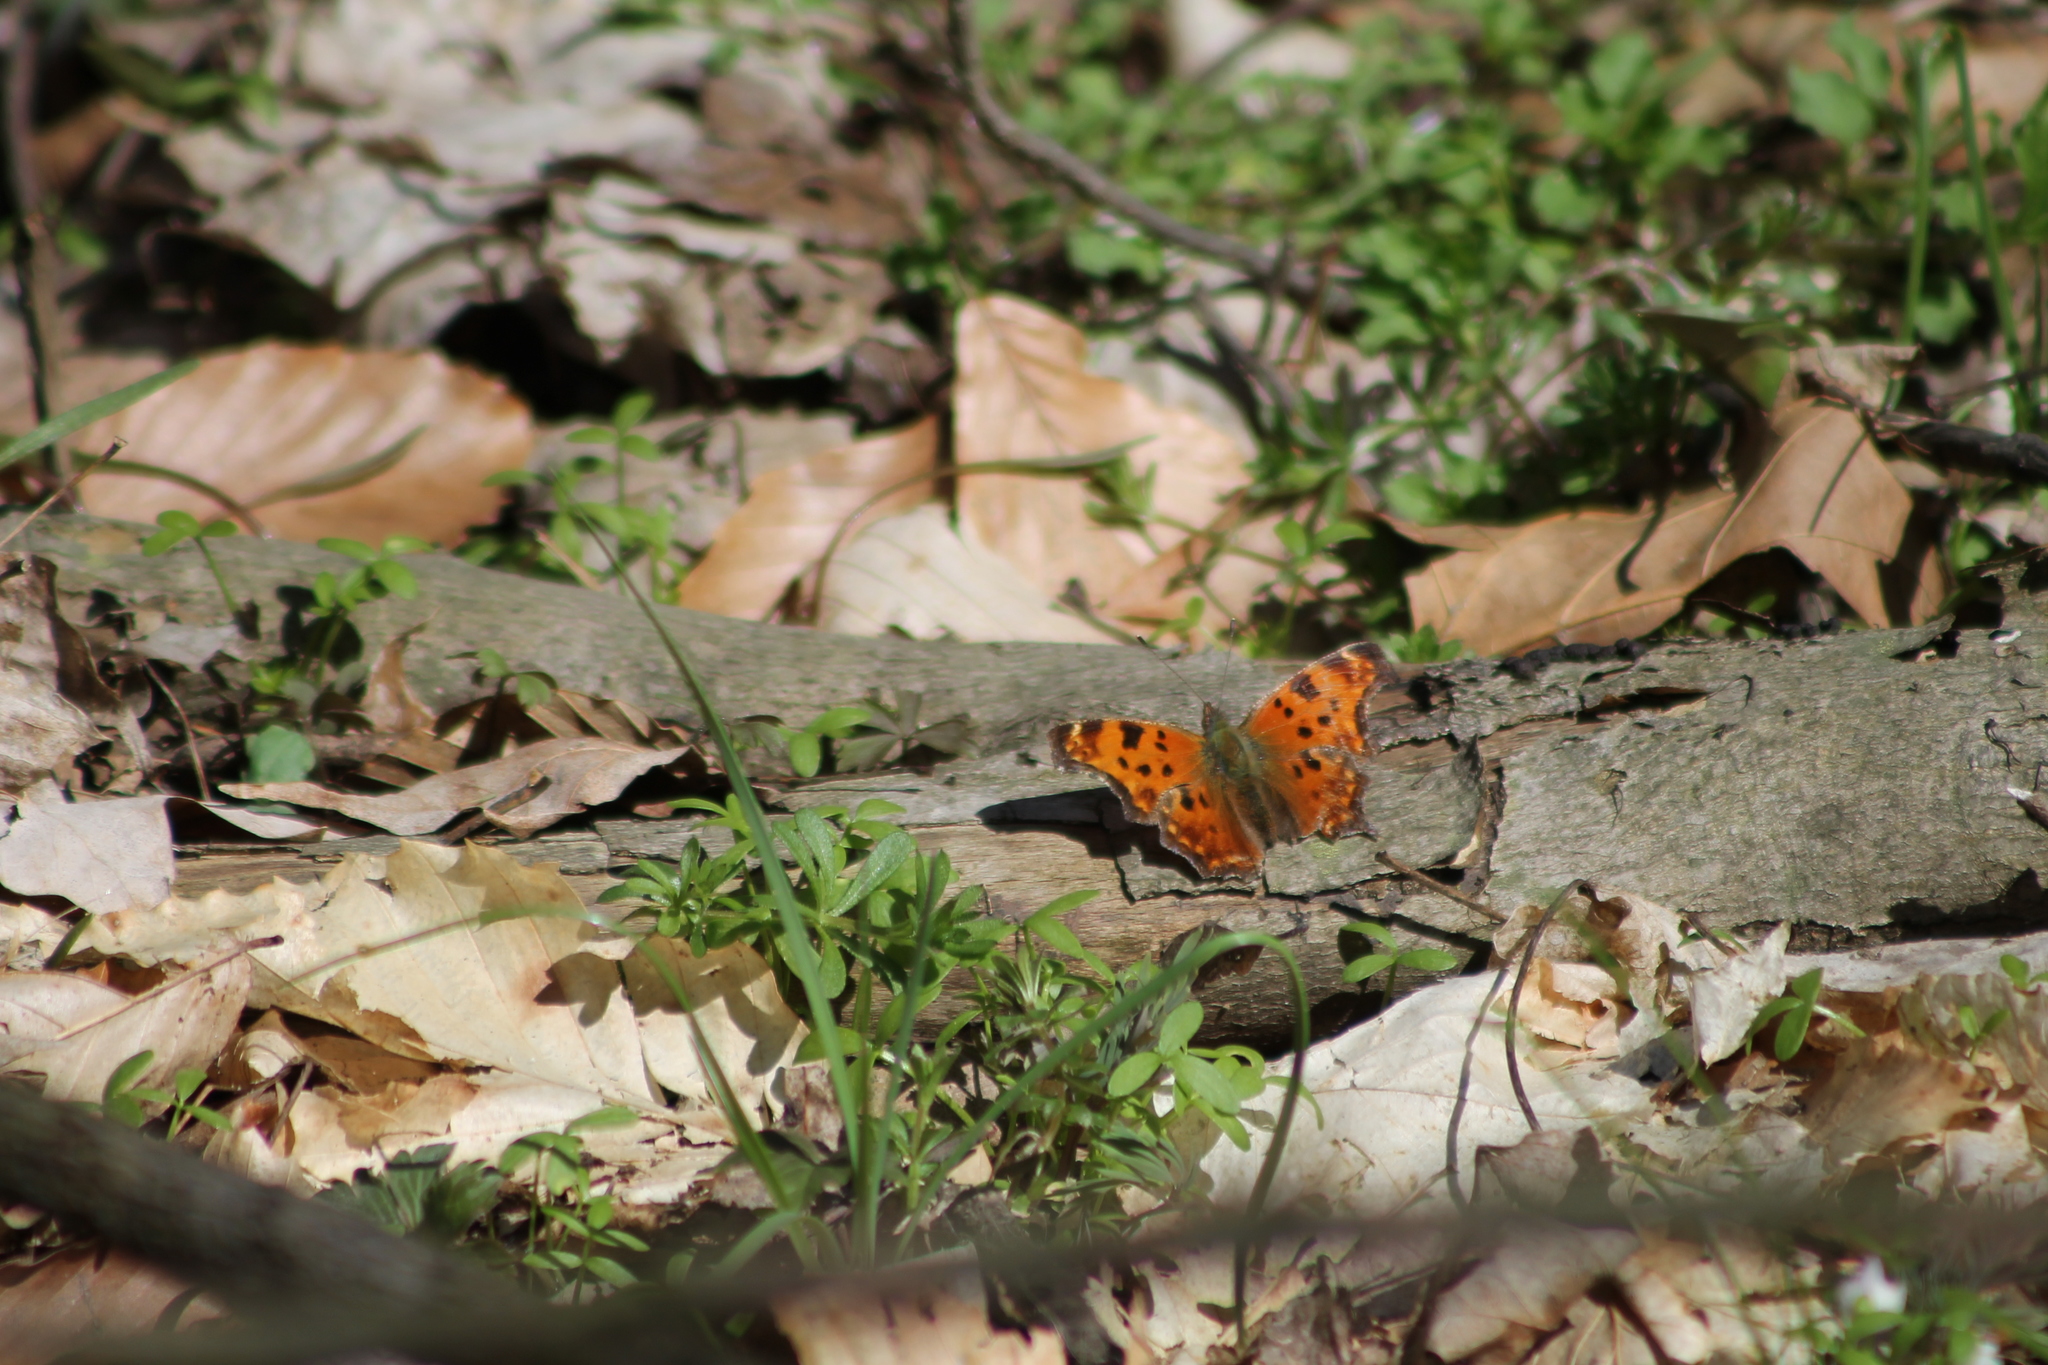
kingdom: Animalia
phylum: Arthropoda
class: Insecta
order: Lepidoptera
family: Nymphalidae
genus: Polygonia
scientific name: Polygonia comma
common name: Eastern comma
